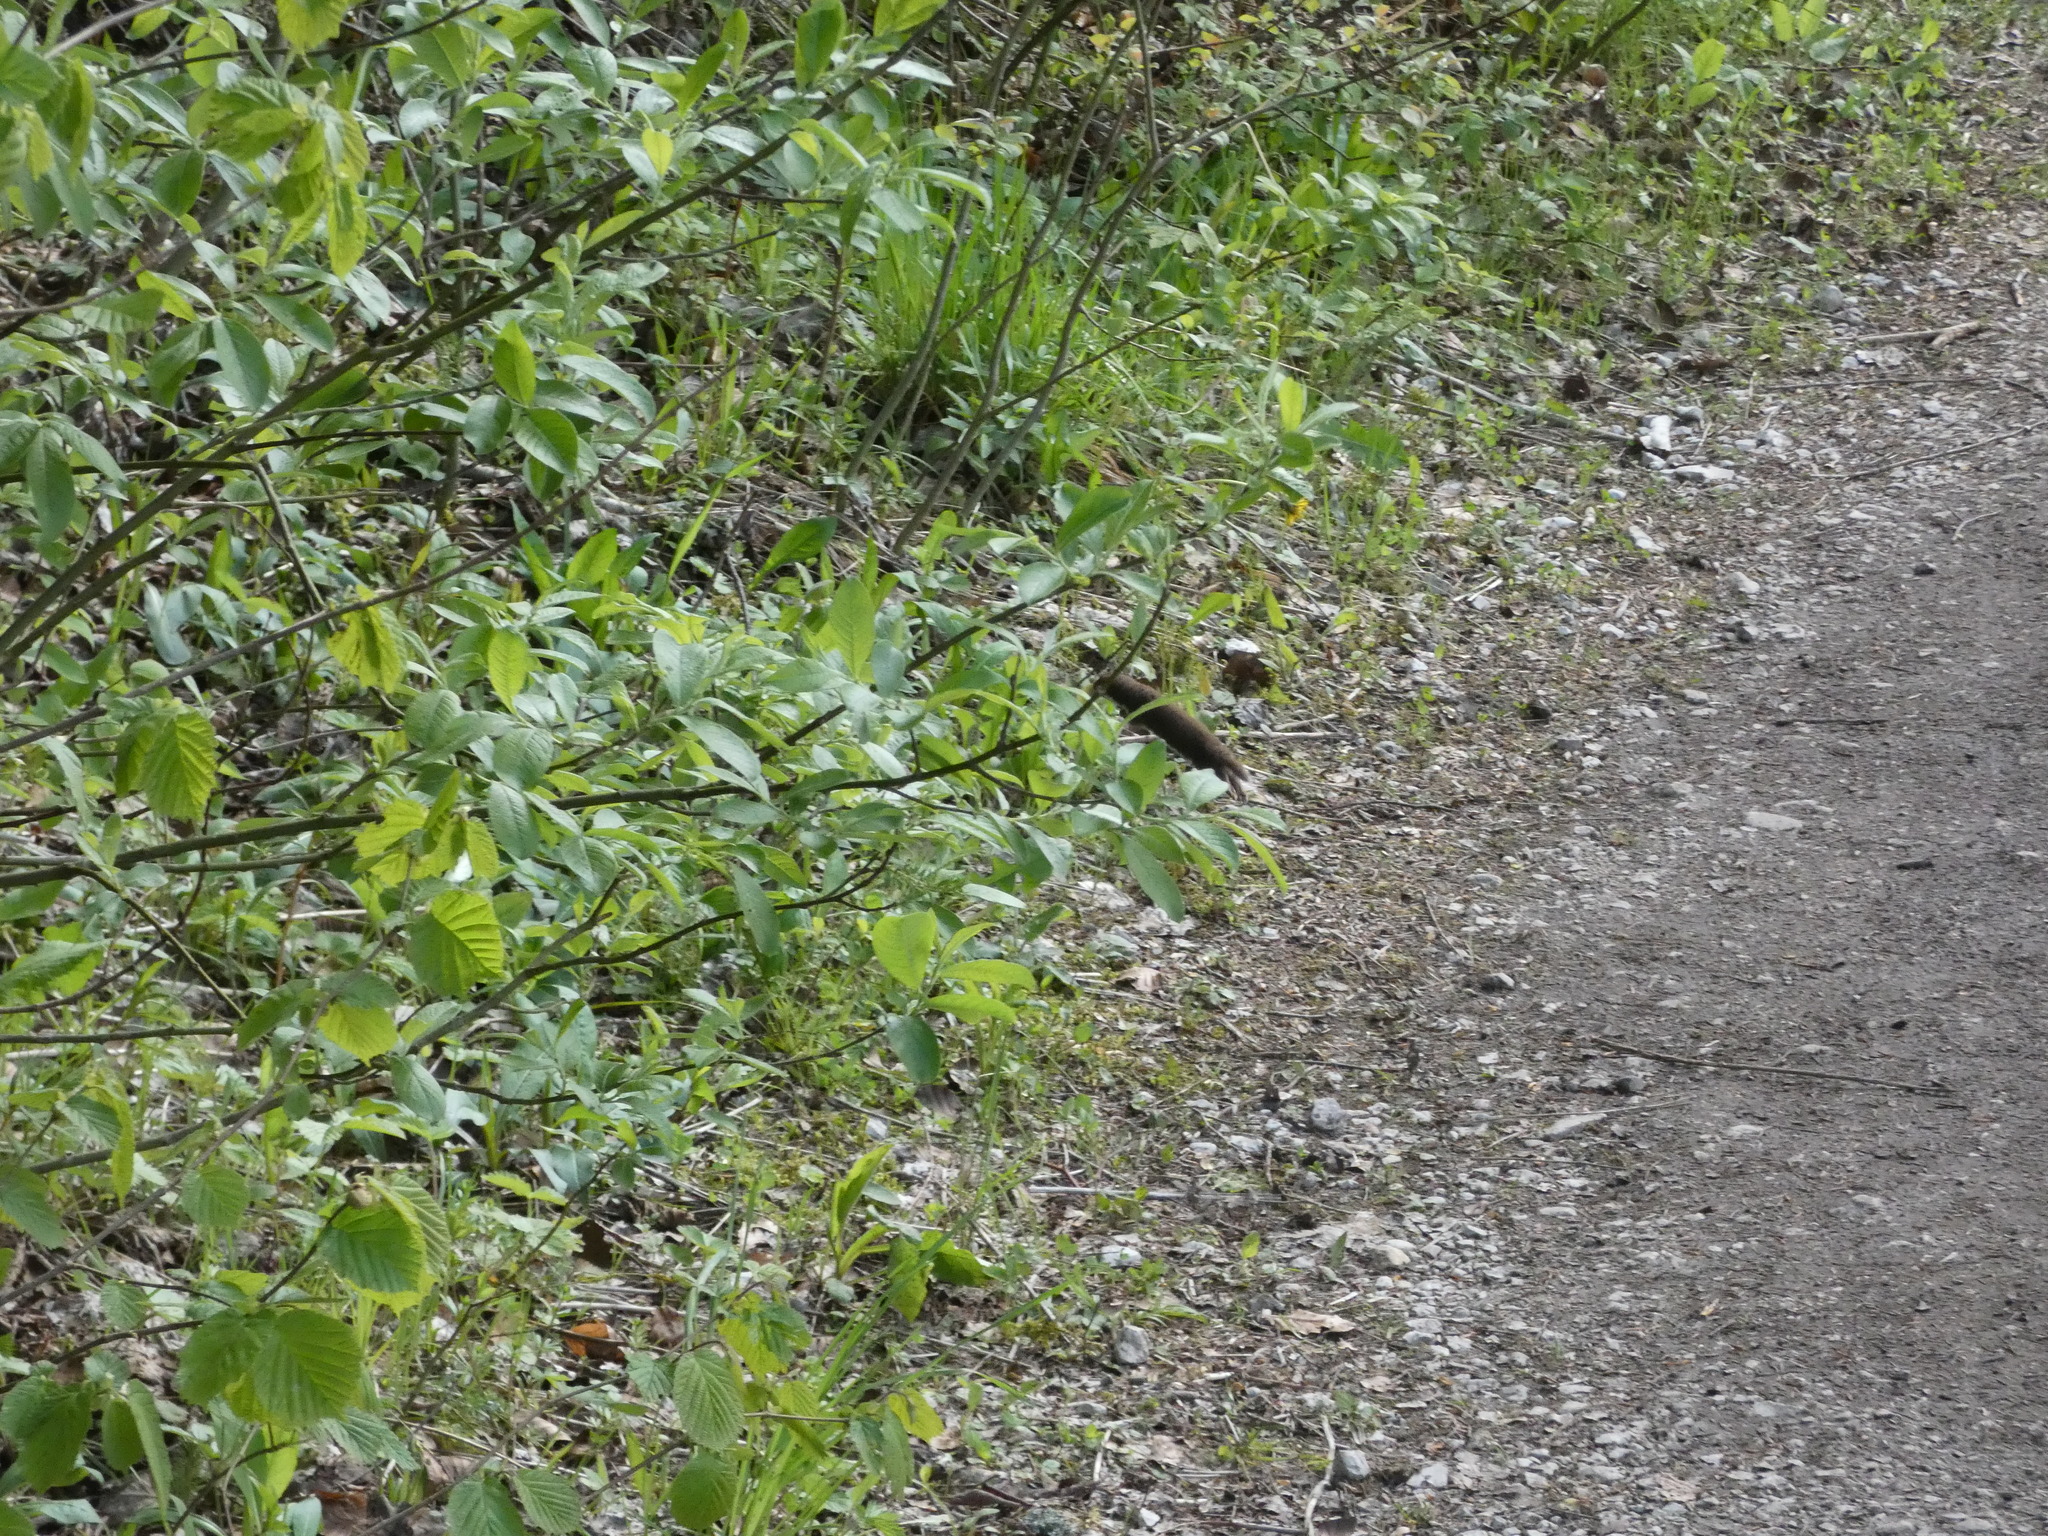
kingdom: Animalia
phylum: Chordata
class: Mammalia
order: Carnivora
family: Mustelidae
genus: Mustela
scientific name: Mustela nivalis
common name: Least weasel
